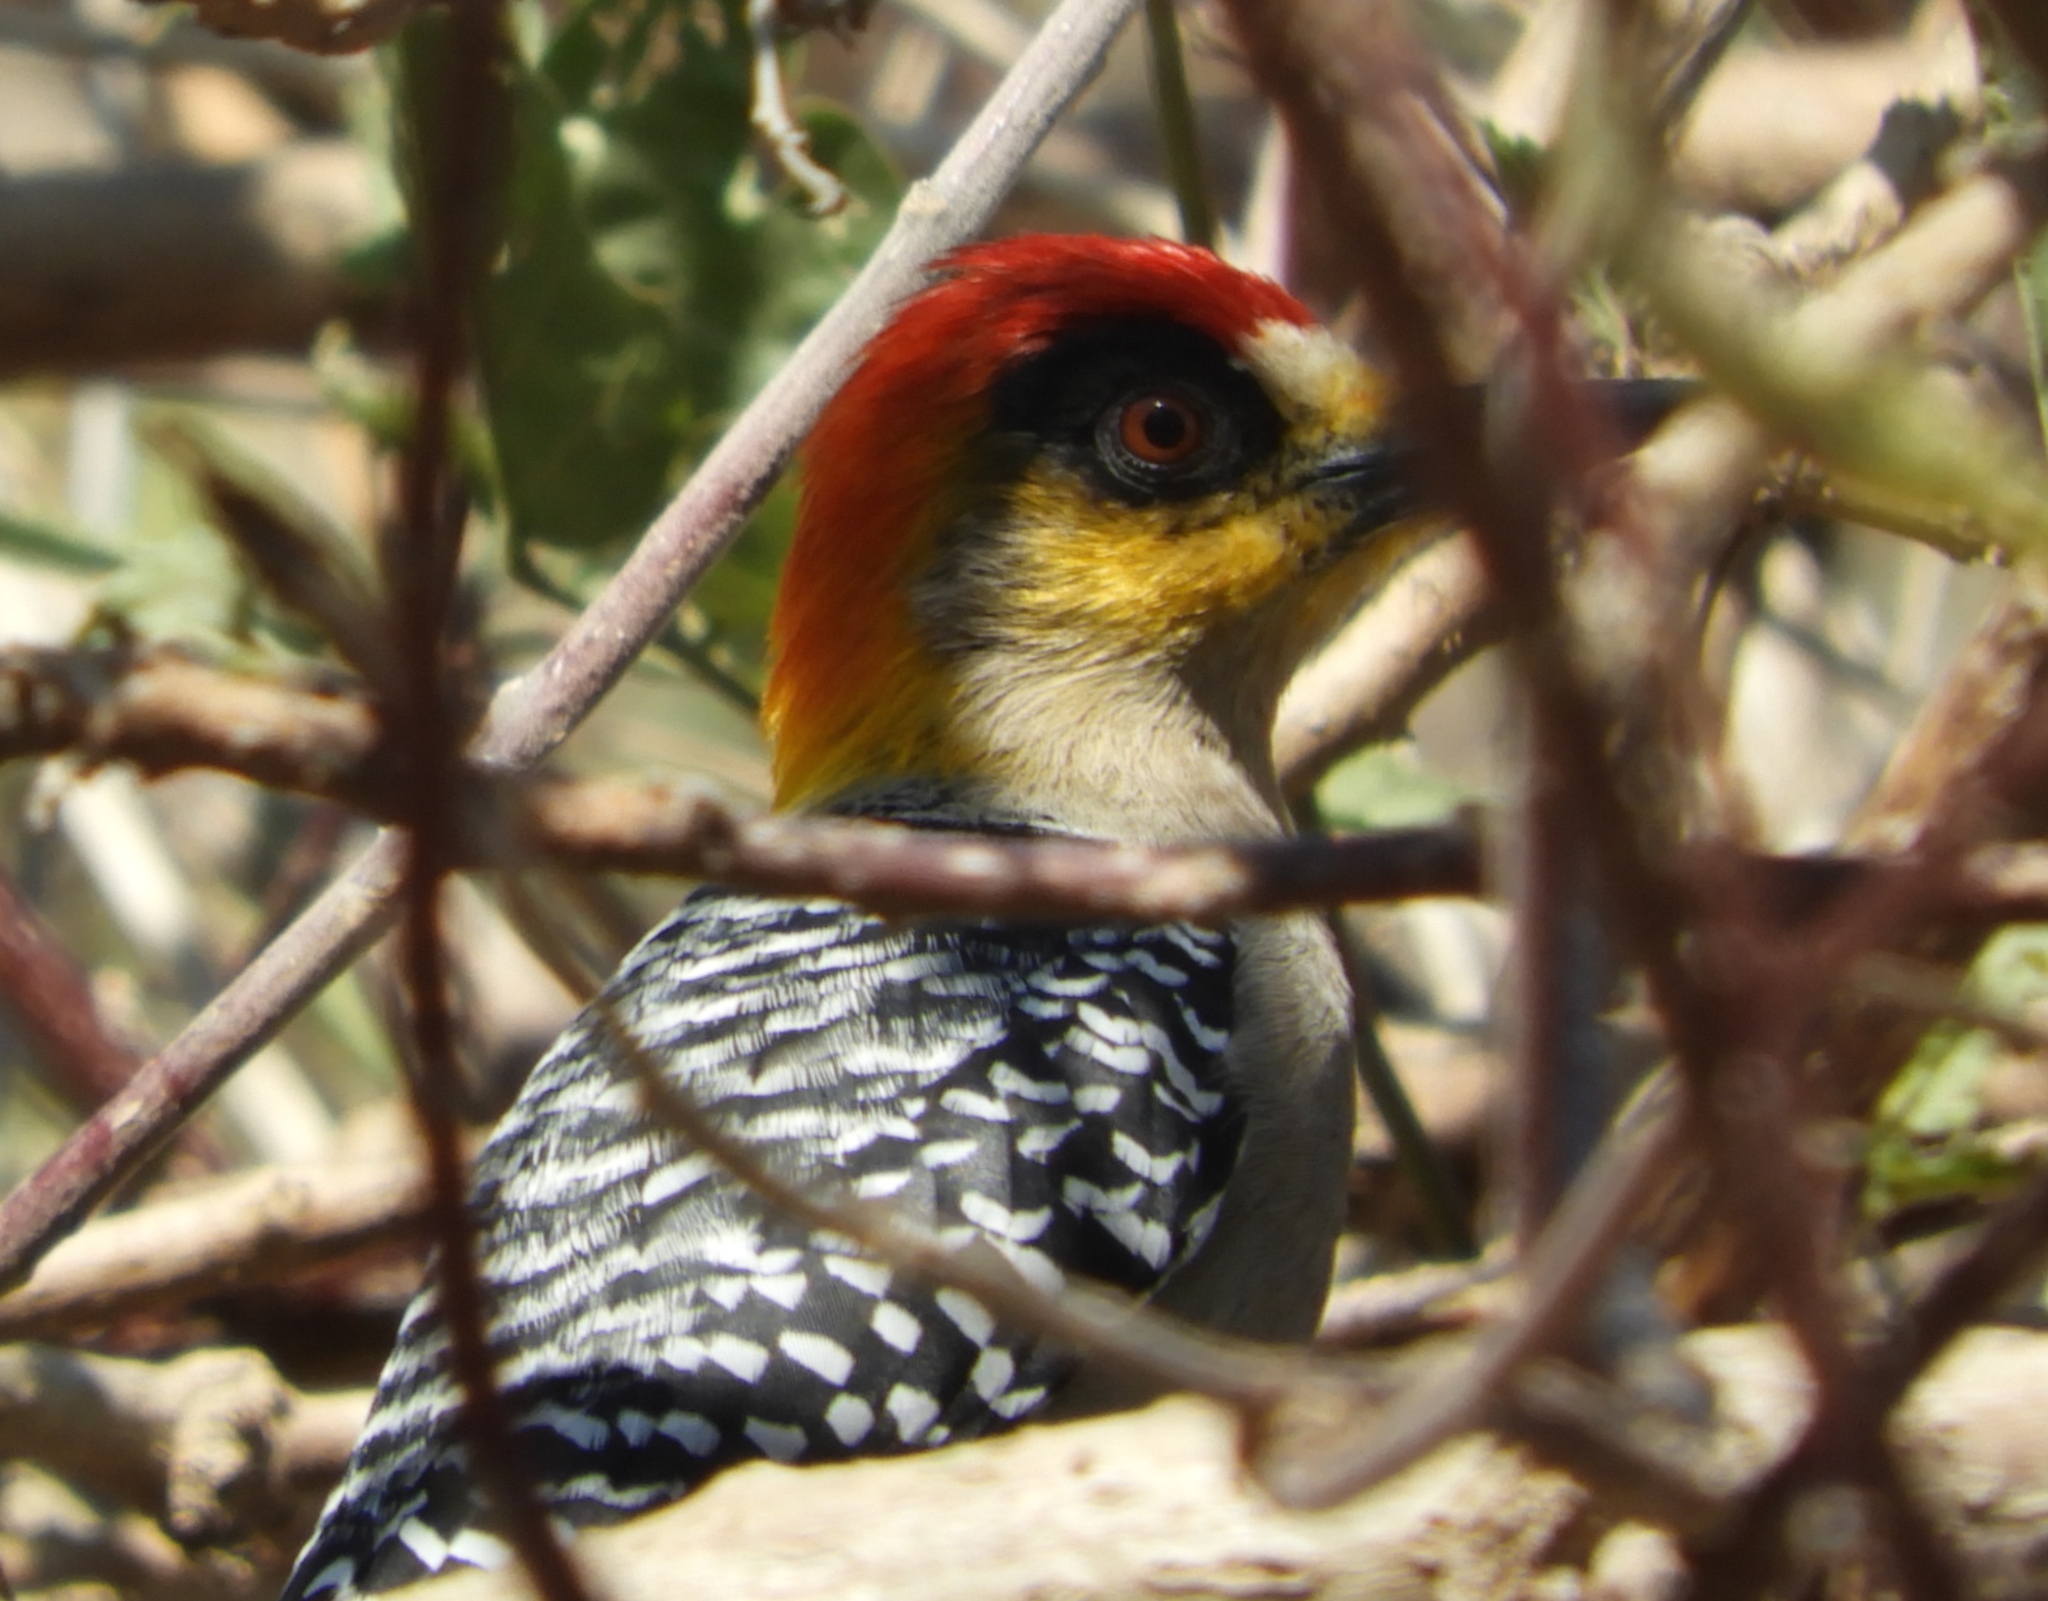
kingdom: Animalia
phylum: Chordata
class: Aves
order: Piciformes
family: Picidae
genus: Melanerpes
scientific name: Melanerpes chrysogenys
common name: Golden-cheeked woodpecker
